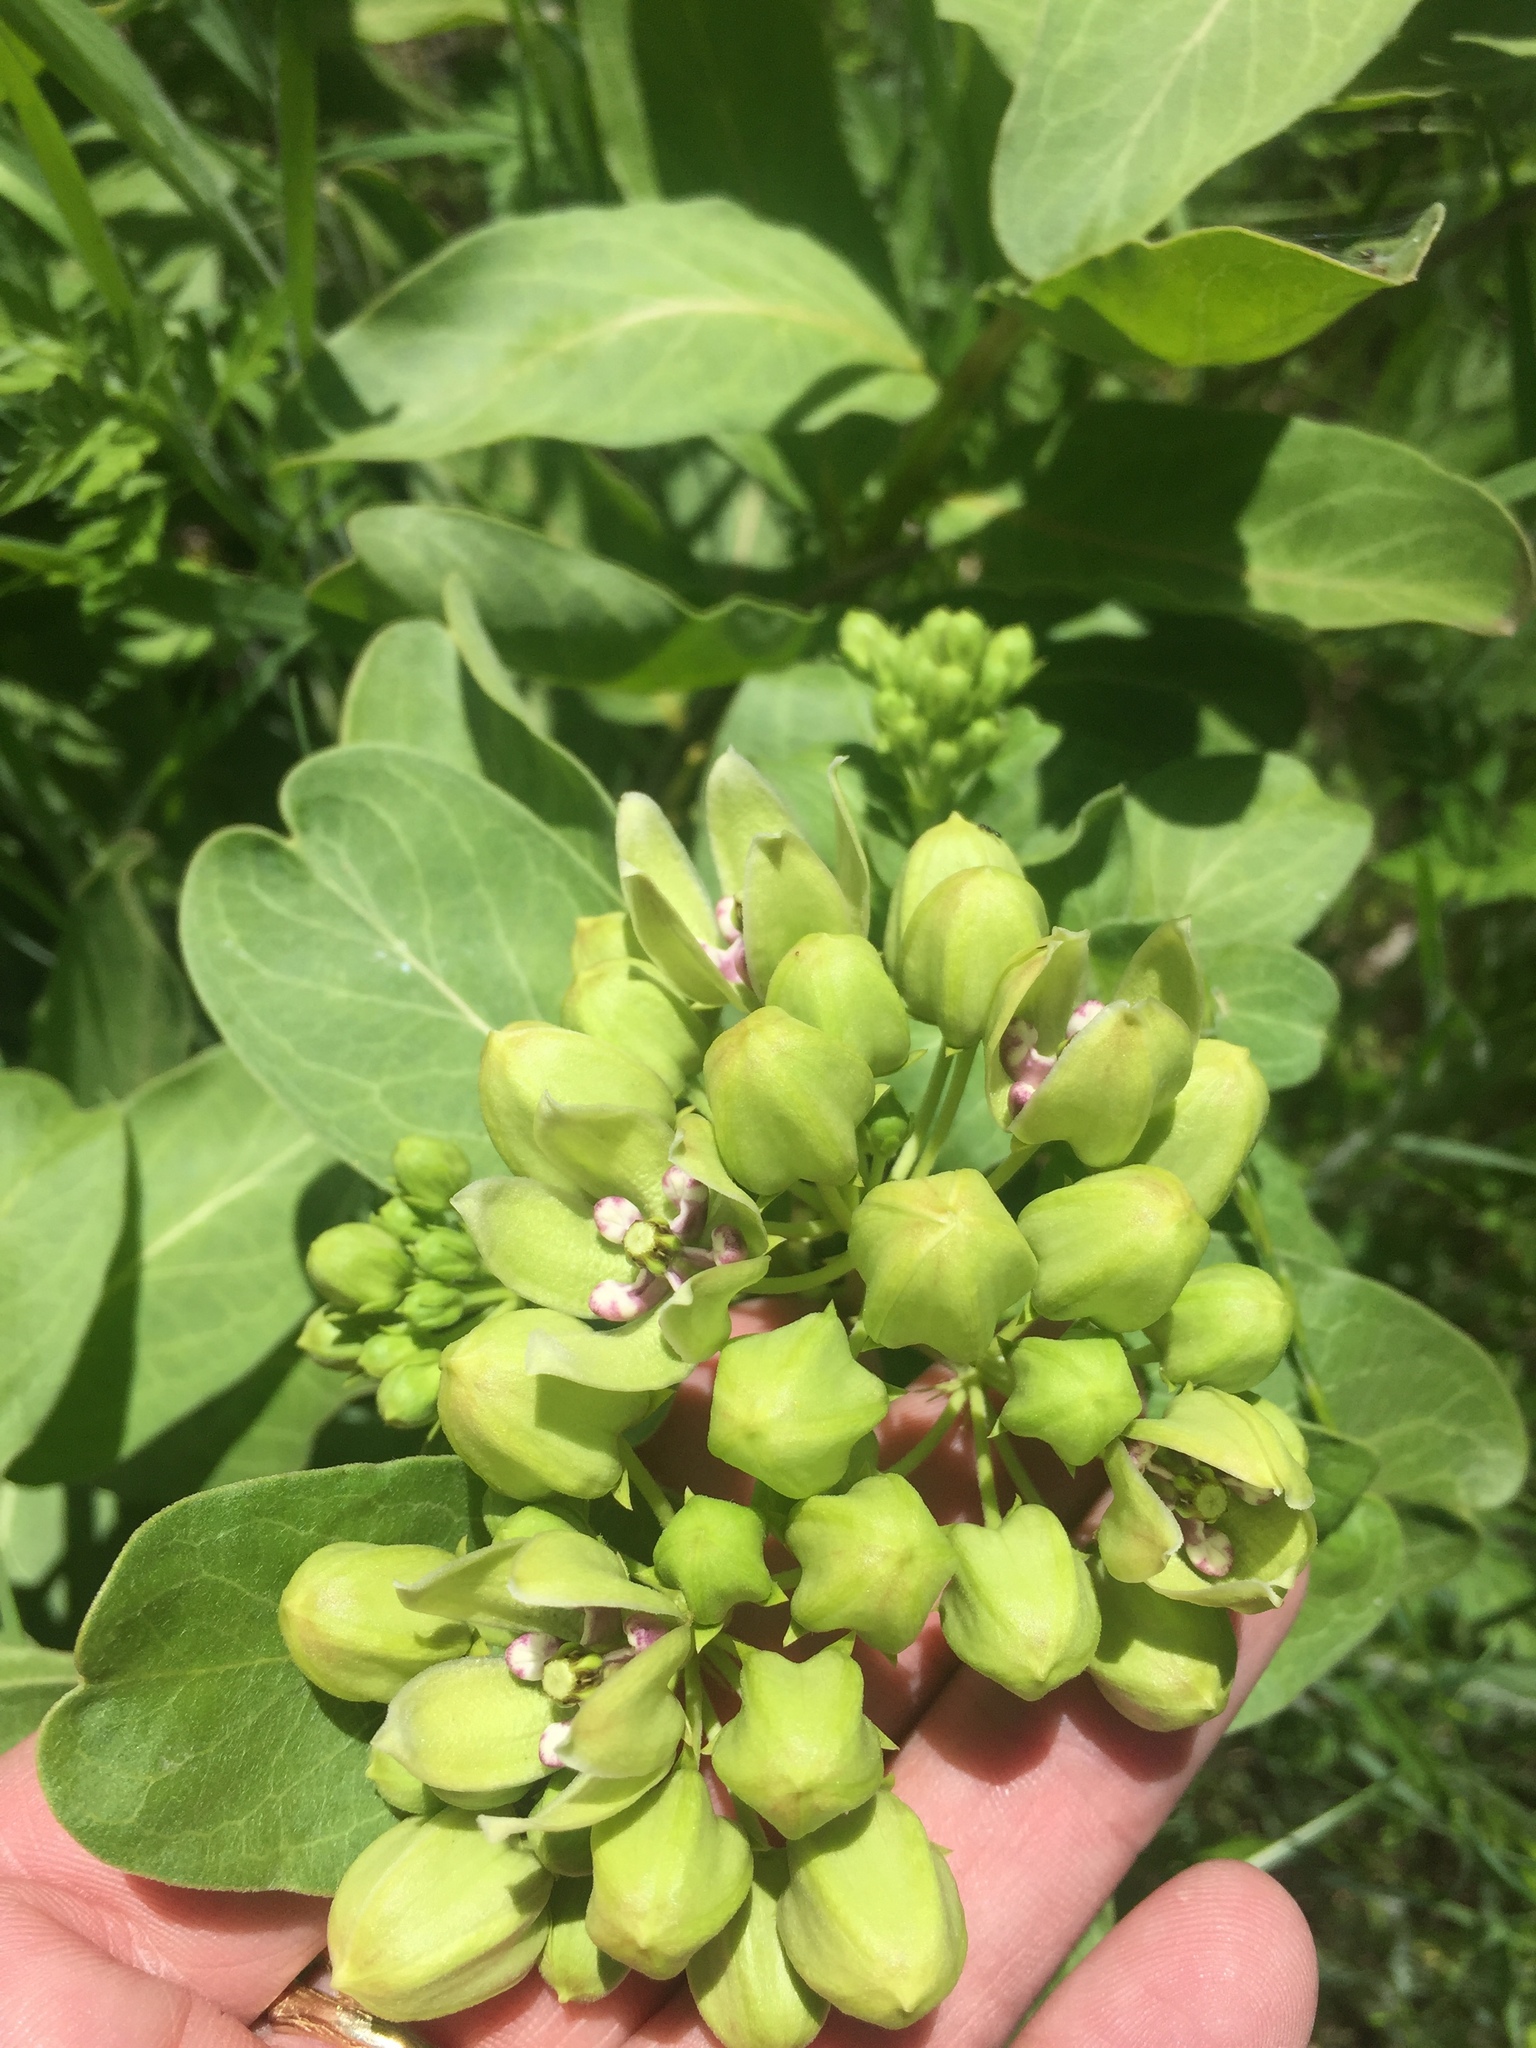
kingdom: Plantae
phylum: Tracheophyta
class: Magnoliopsida
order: Gentianales
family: Apocynaceae
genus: Asclepias
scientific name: Asclepias viridis
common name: Antelope-horns
